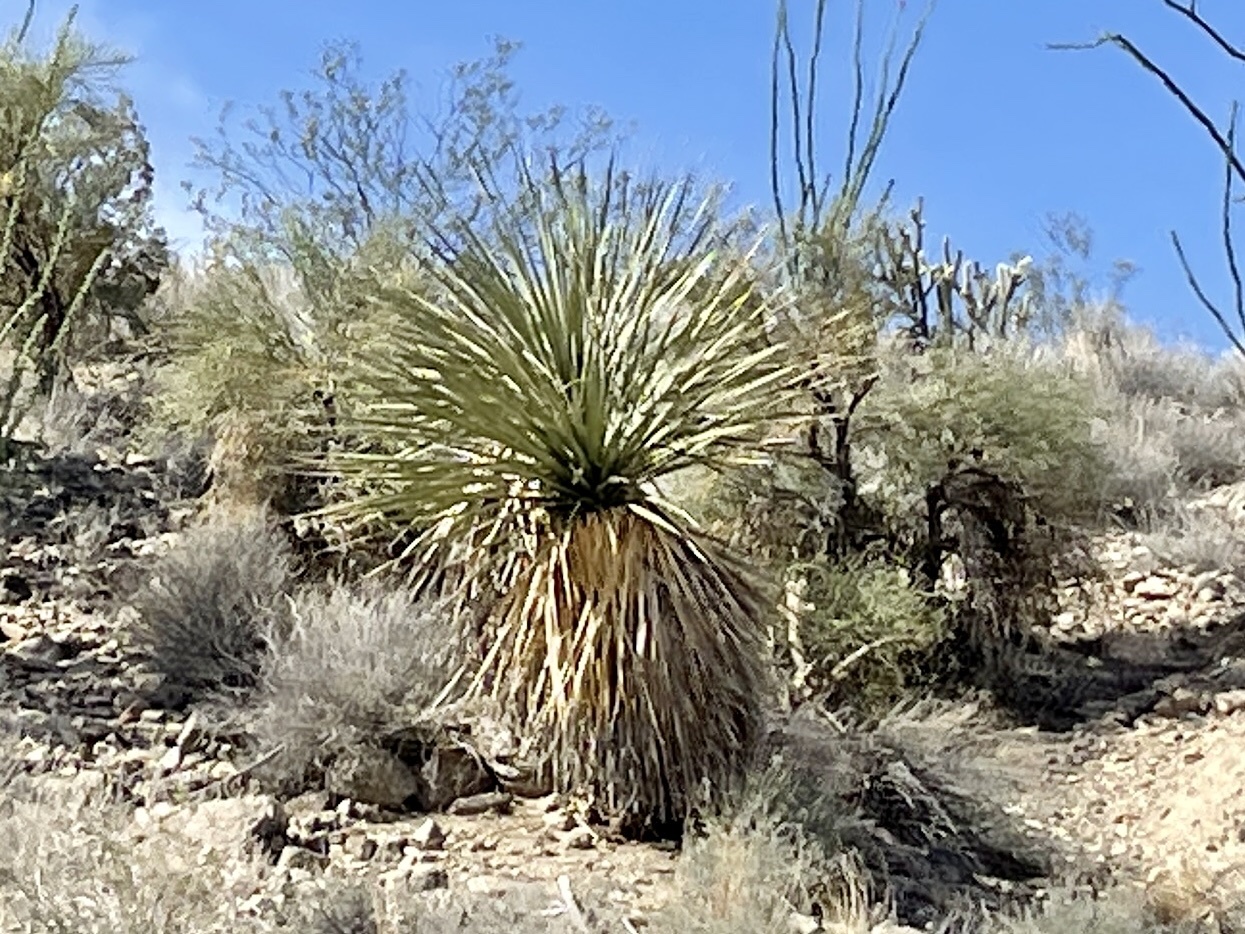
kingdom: Plantae
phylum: Tracheophyta
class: Liliopsida
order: Asparagales
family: Asparagaceae
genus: Nolina
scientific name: Nolina bigelovii
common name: Bigelow bear-grass
